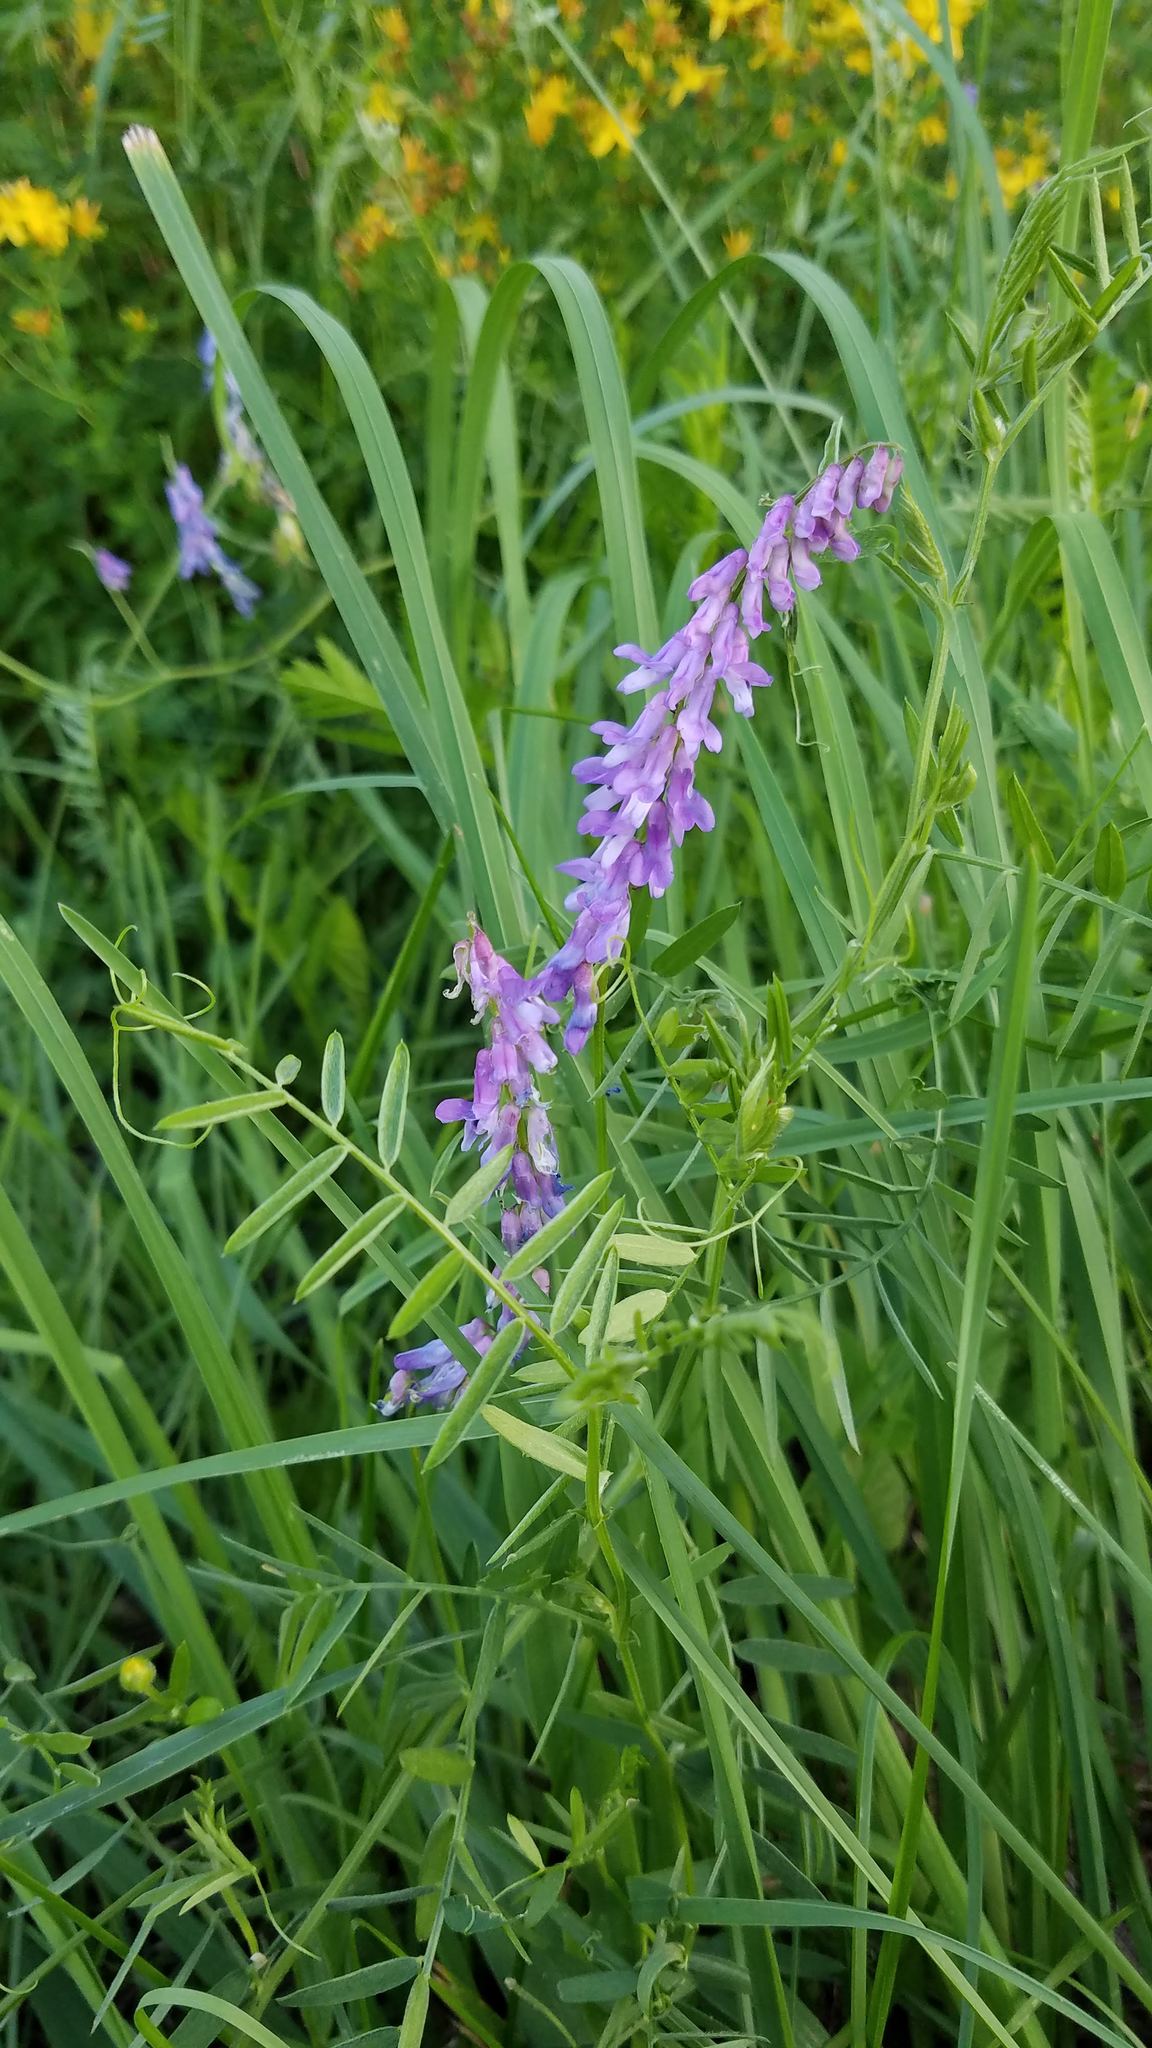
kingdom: Plantae
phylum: Tracheophyta
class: Magnoliopsida
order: Fabales
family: Fabaceae
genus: Vicia
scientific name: Vicia cracca
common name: Bird vetch
